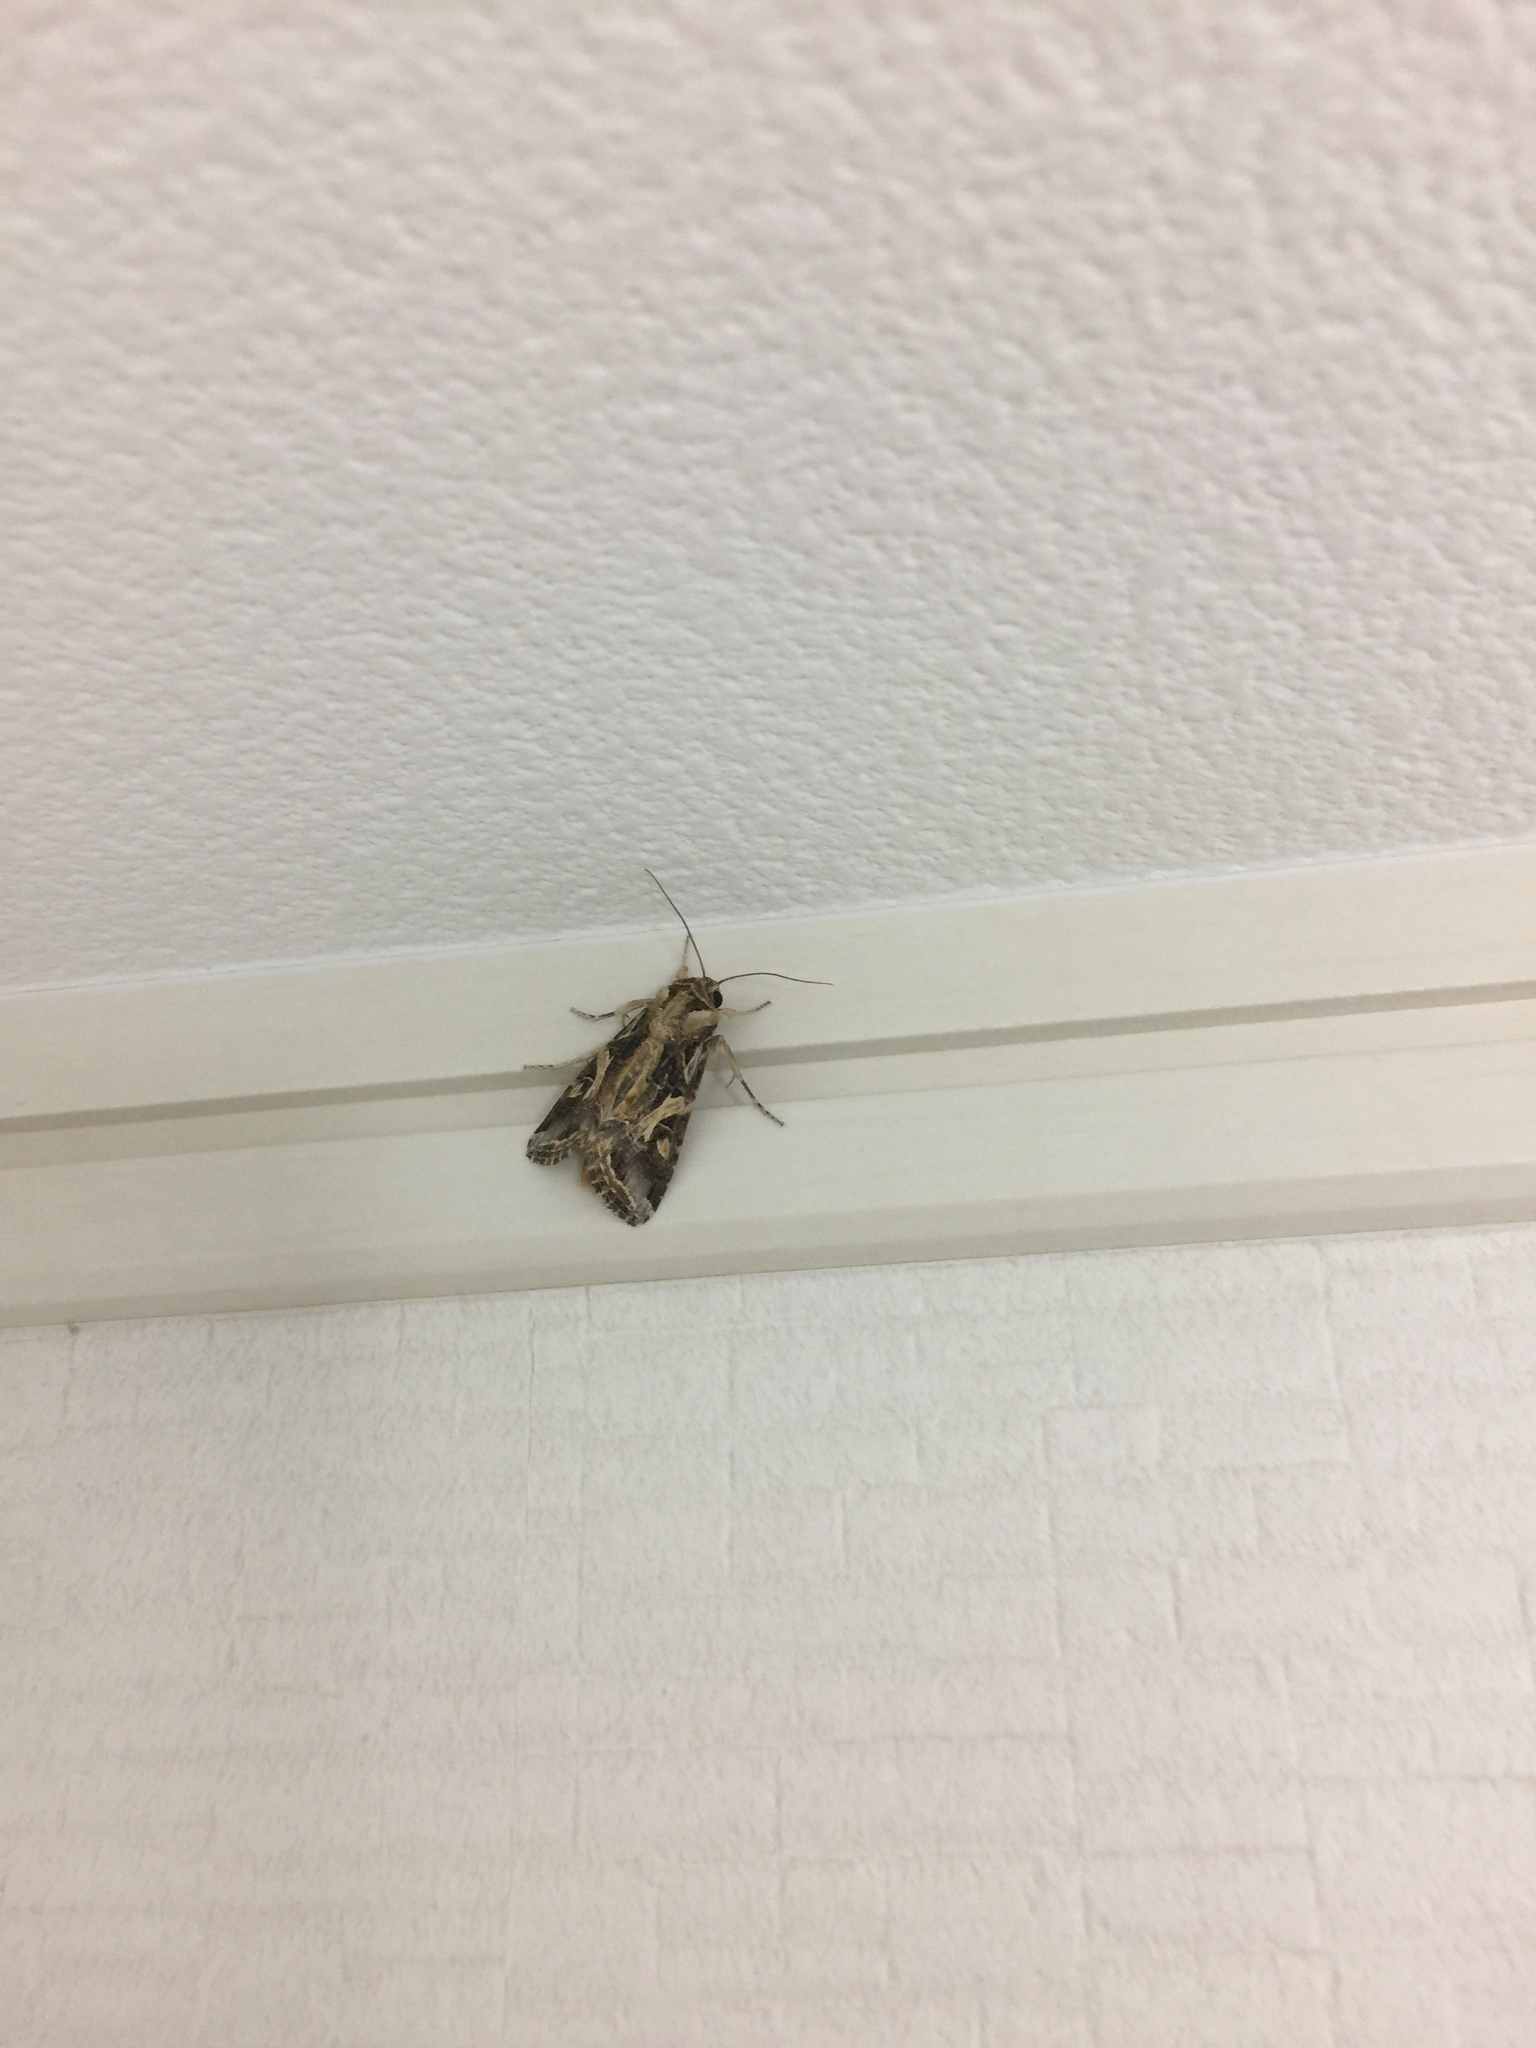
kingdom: Animalia
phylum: Arthropoda
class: Insecta
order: Lepidoptera
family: Noctuidae
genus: Spodoptera
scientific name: Spodoptera litura
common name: Asian cotton leafworm
